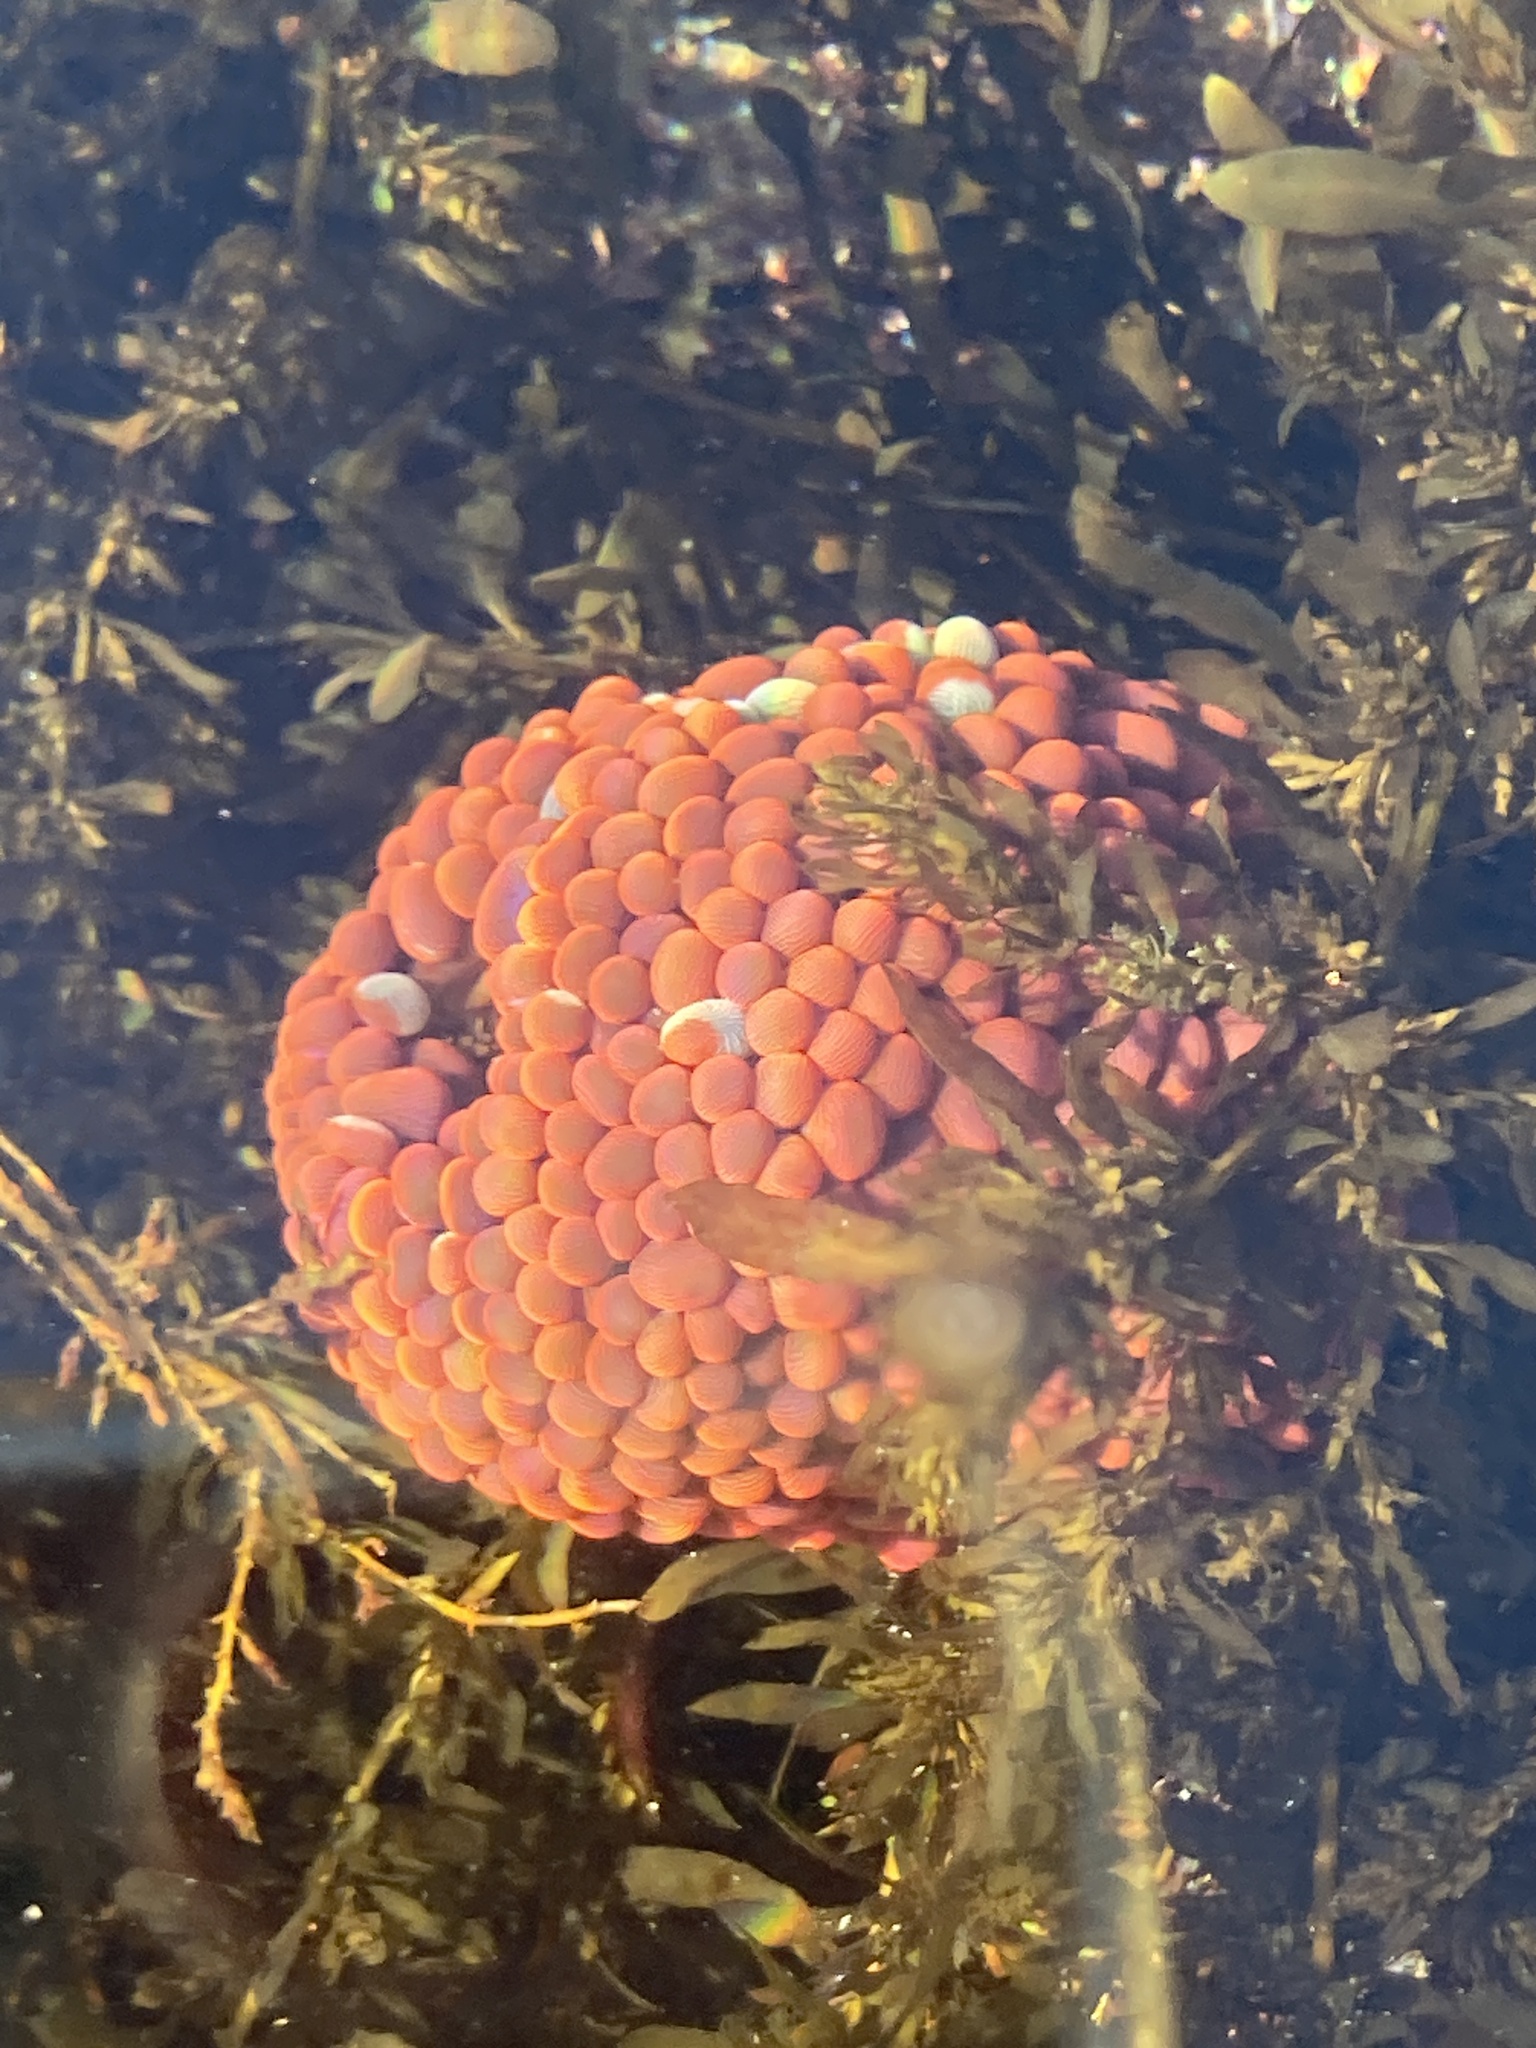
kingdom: Animalia
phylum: Cnidaria
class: Anthozoa
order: Actiniaria
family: Actiniidae
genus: Phlyctenactis
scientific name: Phlyctenactis tuberculosa
